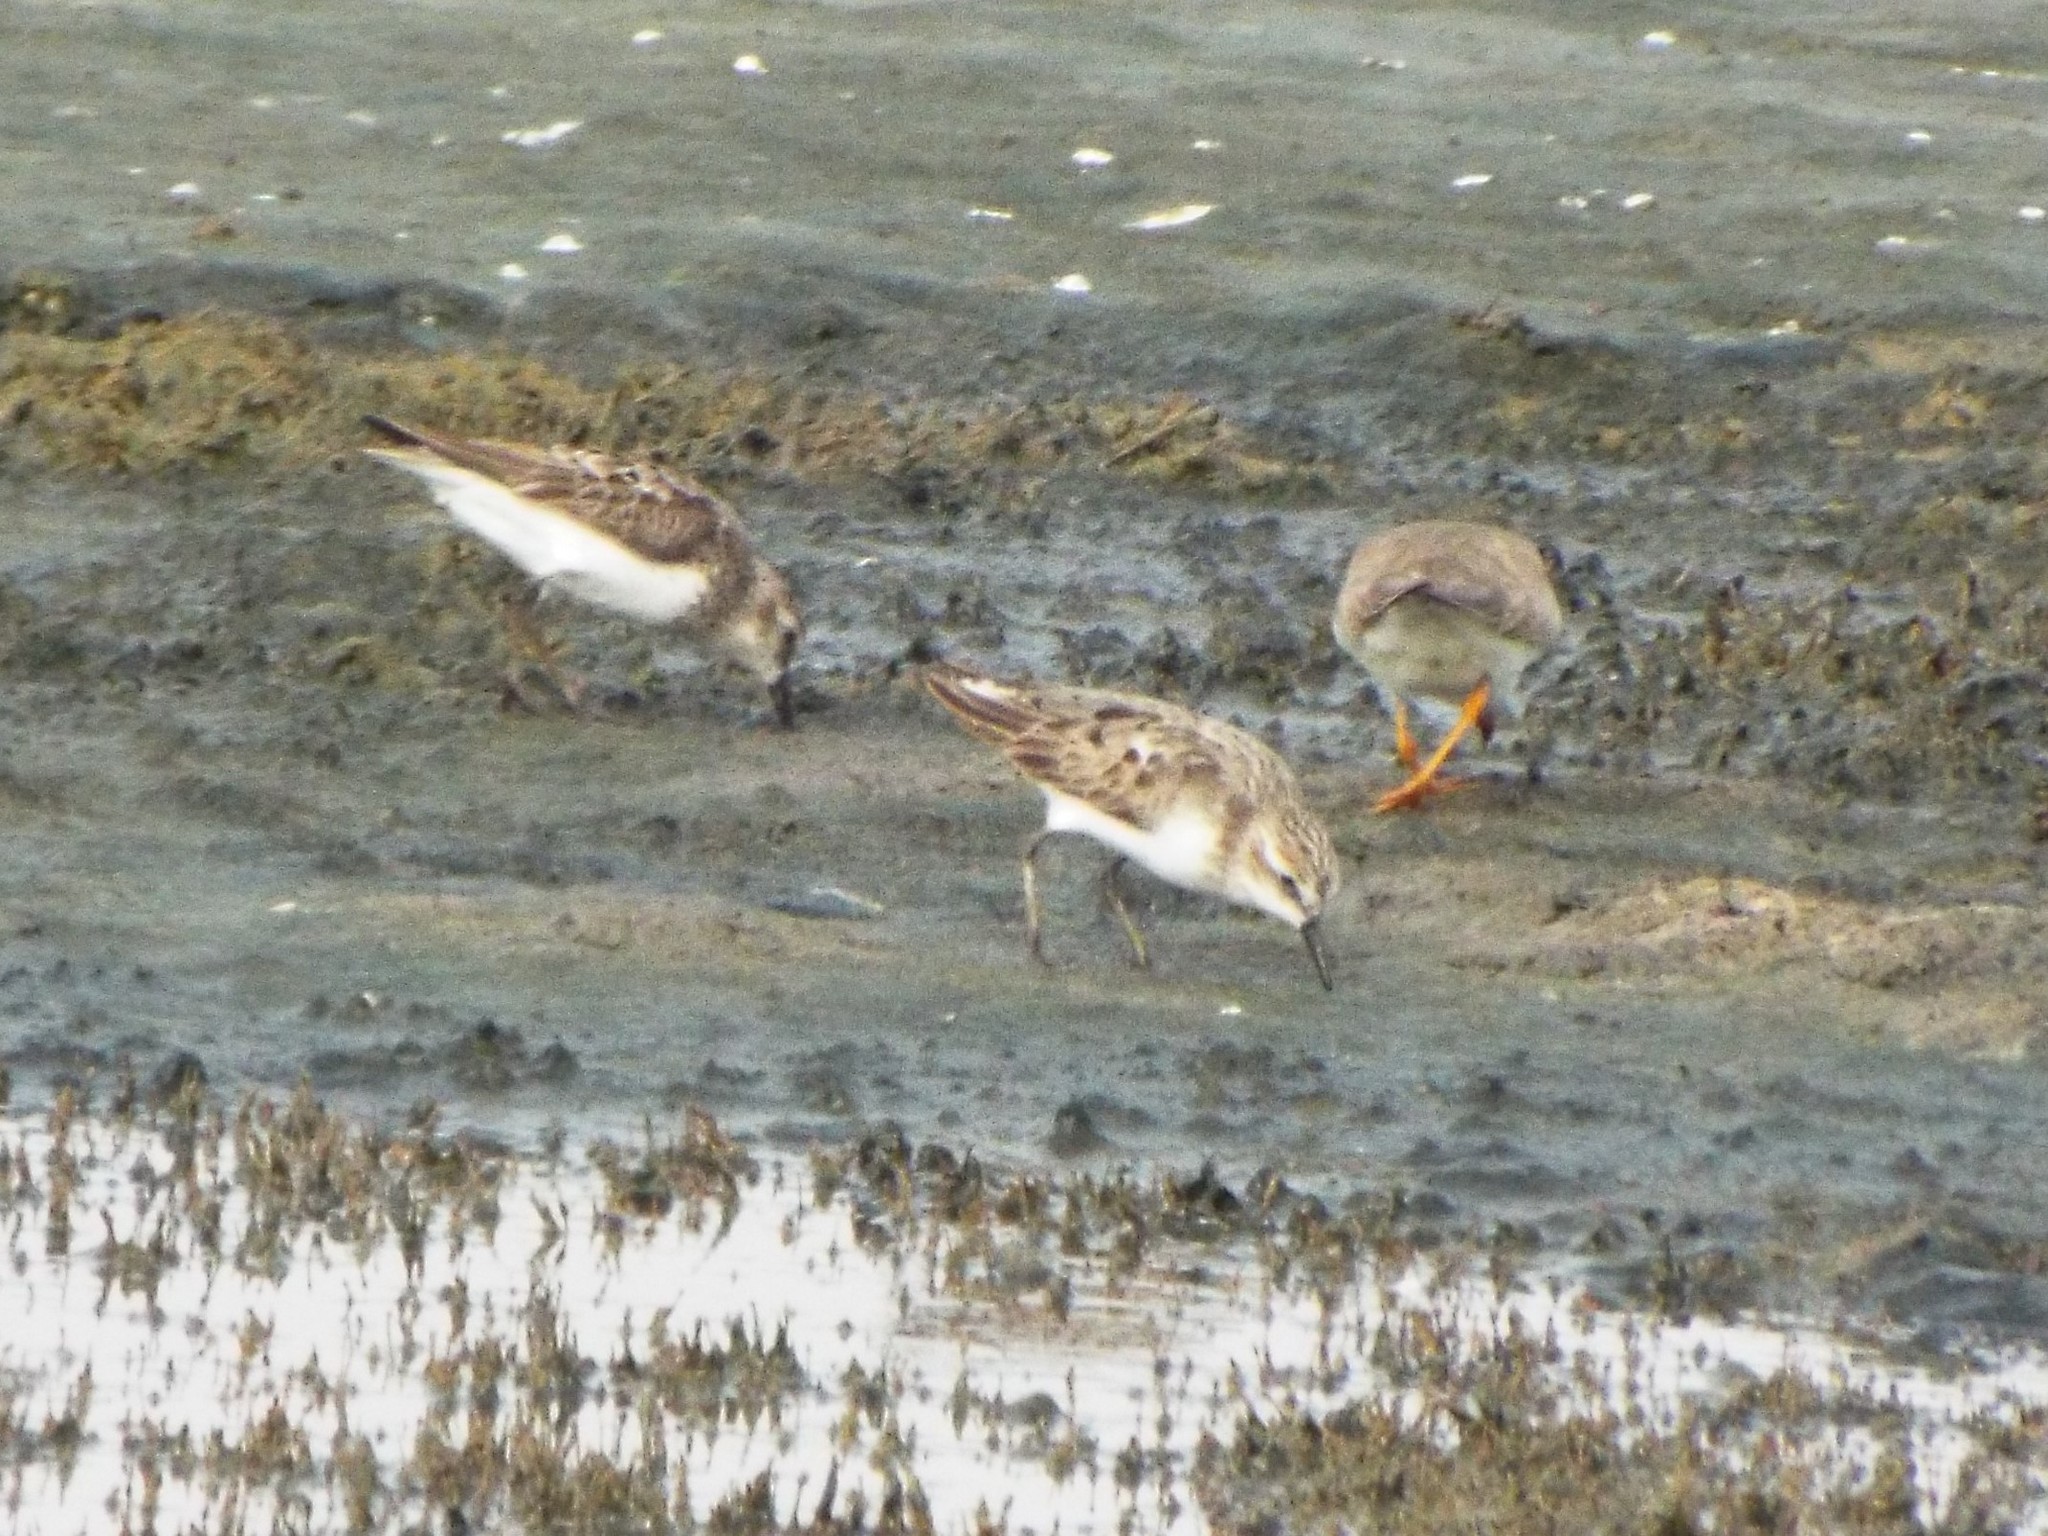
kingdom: Animalia
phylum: Chordata
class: Aves
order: Charadriiformes
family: Scolopacidae
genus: Calidris
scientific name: Calidris pusilla
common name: Semipalmated sandpiper
